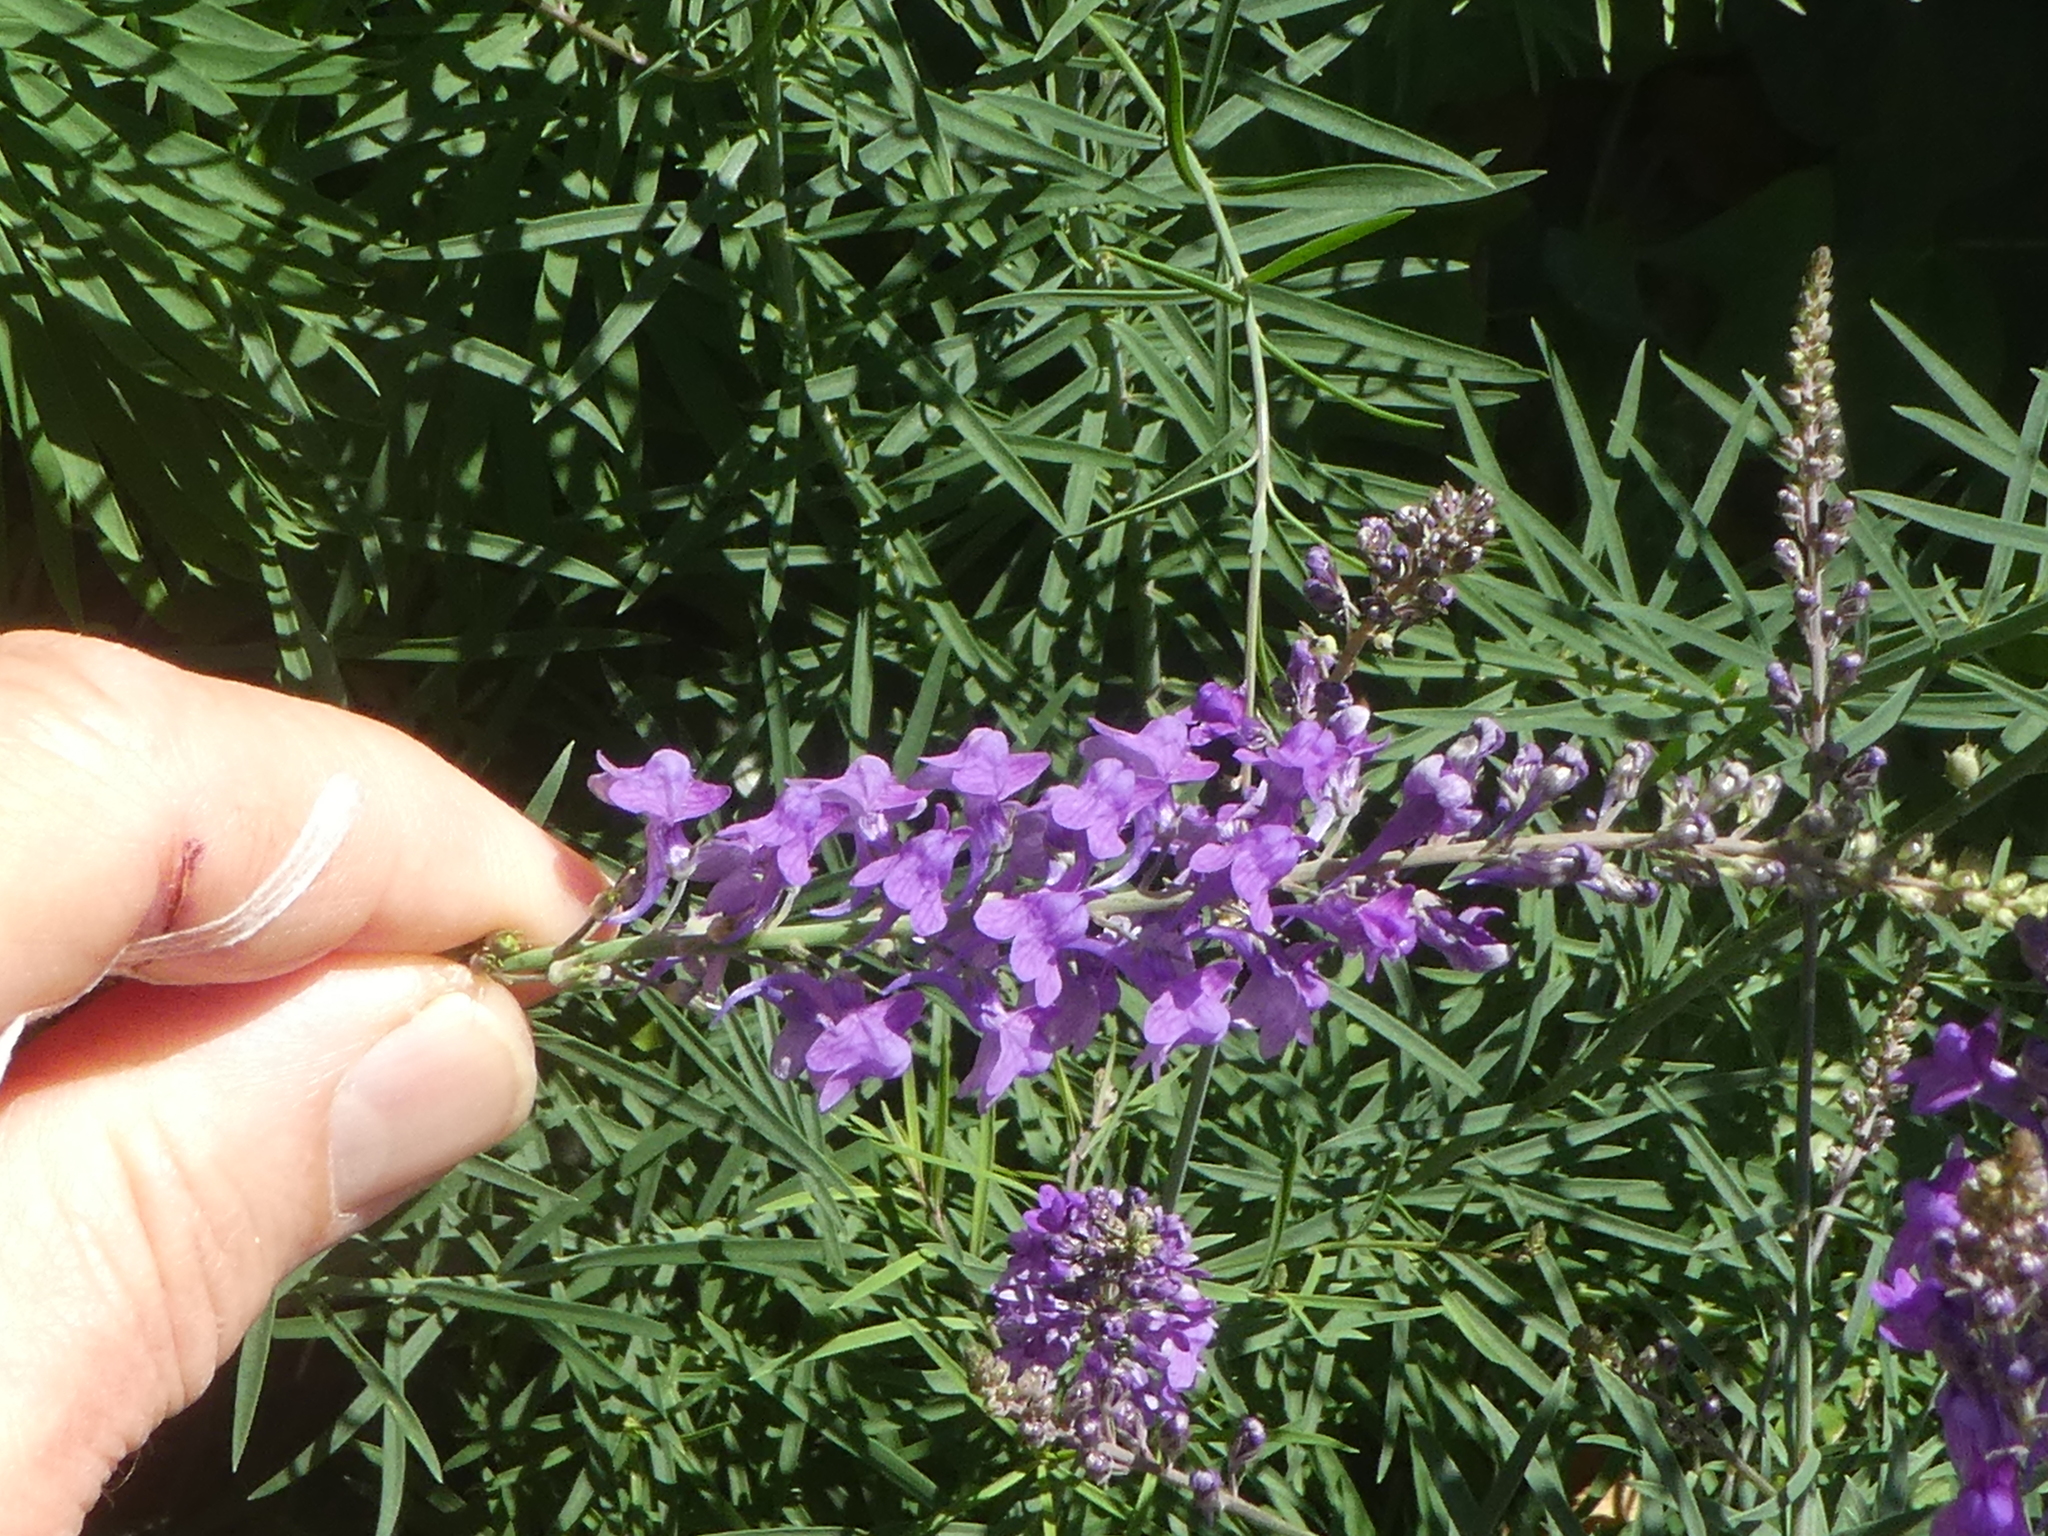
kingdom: Plantae
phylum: Tracheophyta
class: Magnoliopsida
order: Lamiales
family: Plantaginaceae
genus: Linaria
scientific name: Linaria purpurea
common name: Purple toadflax
